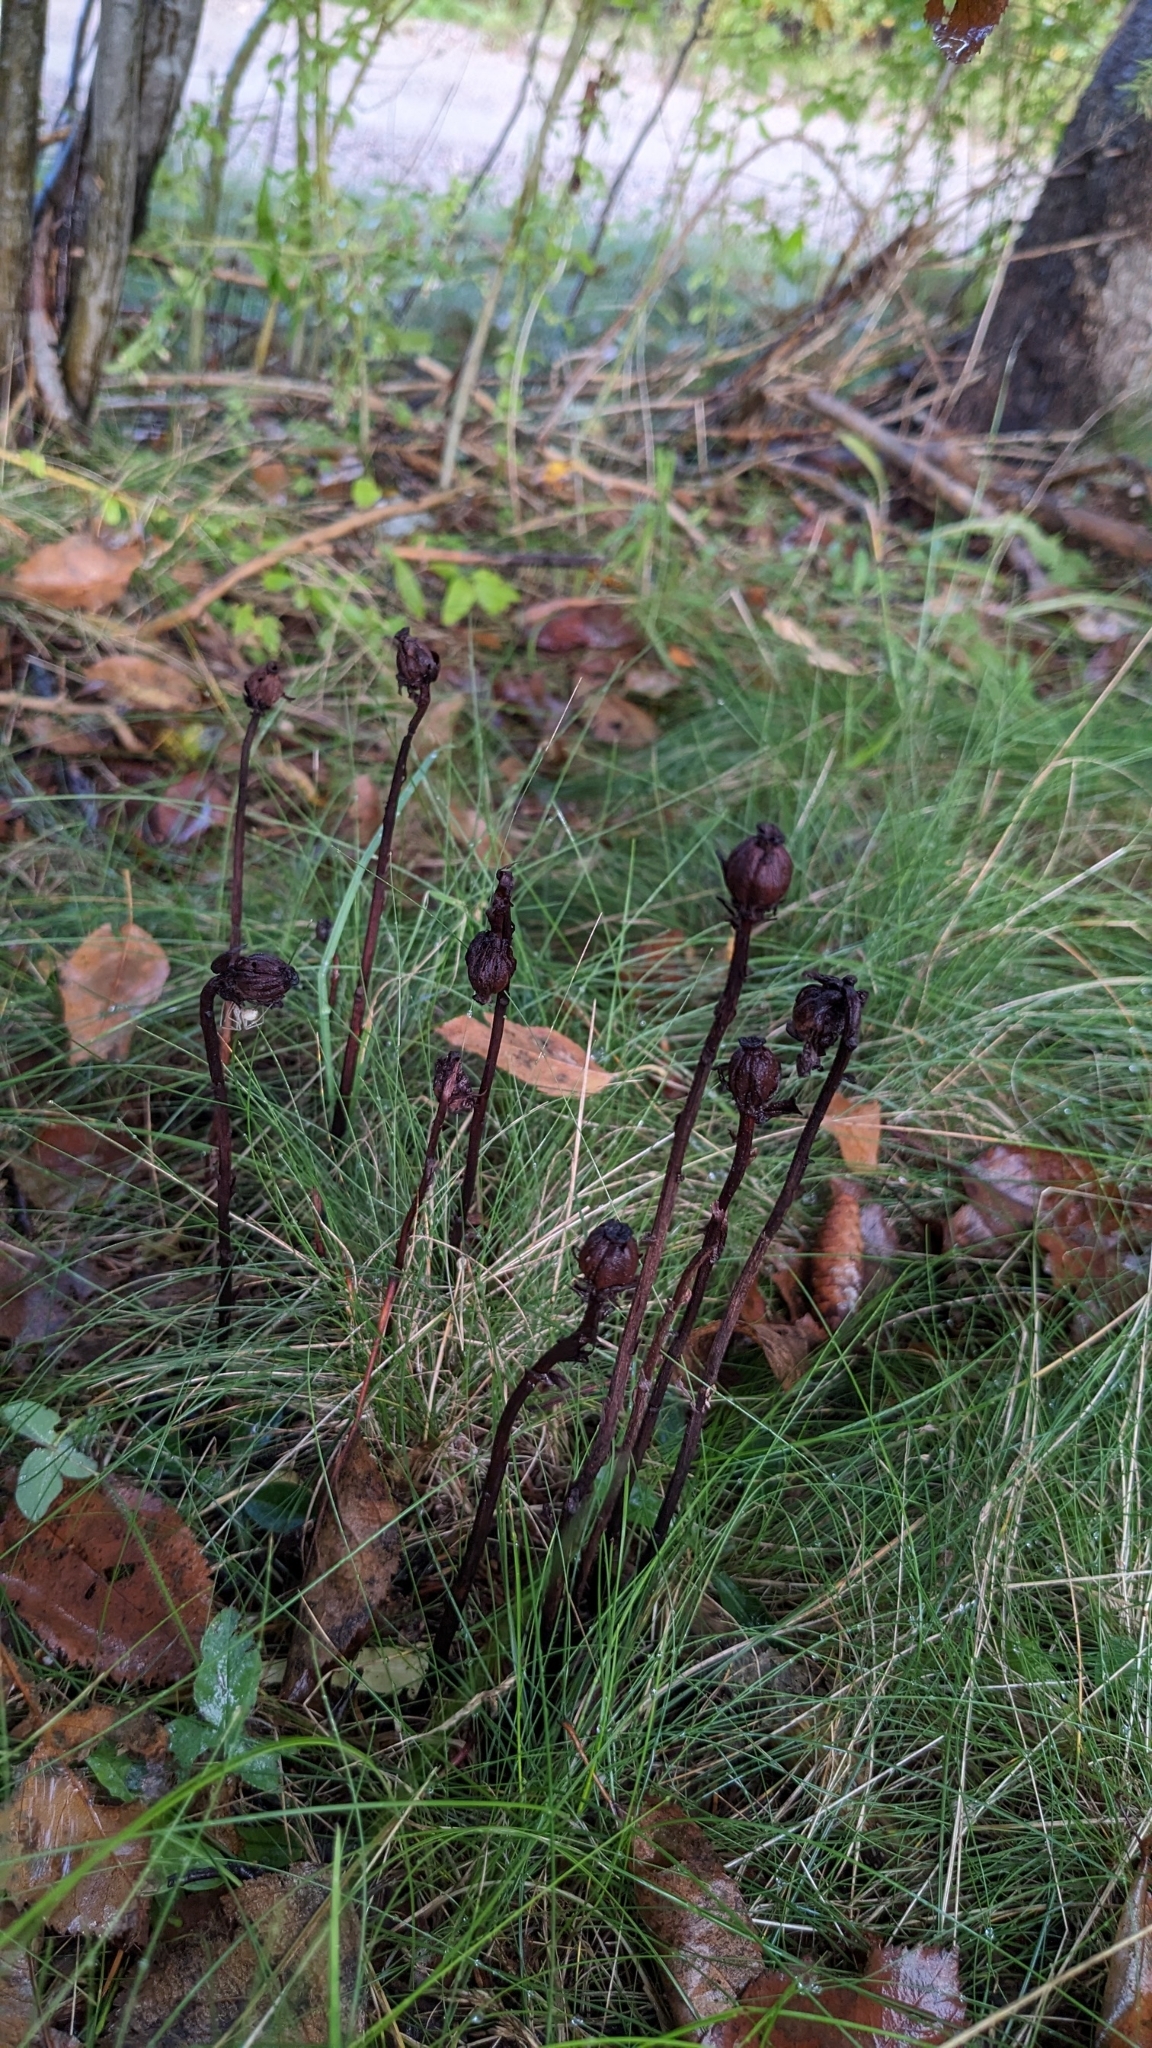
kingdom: Plantae
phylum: Tracheophyta
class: Magnoliopsida
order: Ericales
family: Ericaceae
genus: Monotropa
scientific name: Monotropa uniflora
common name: Convulsion root
